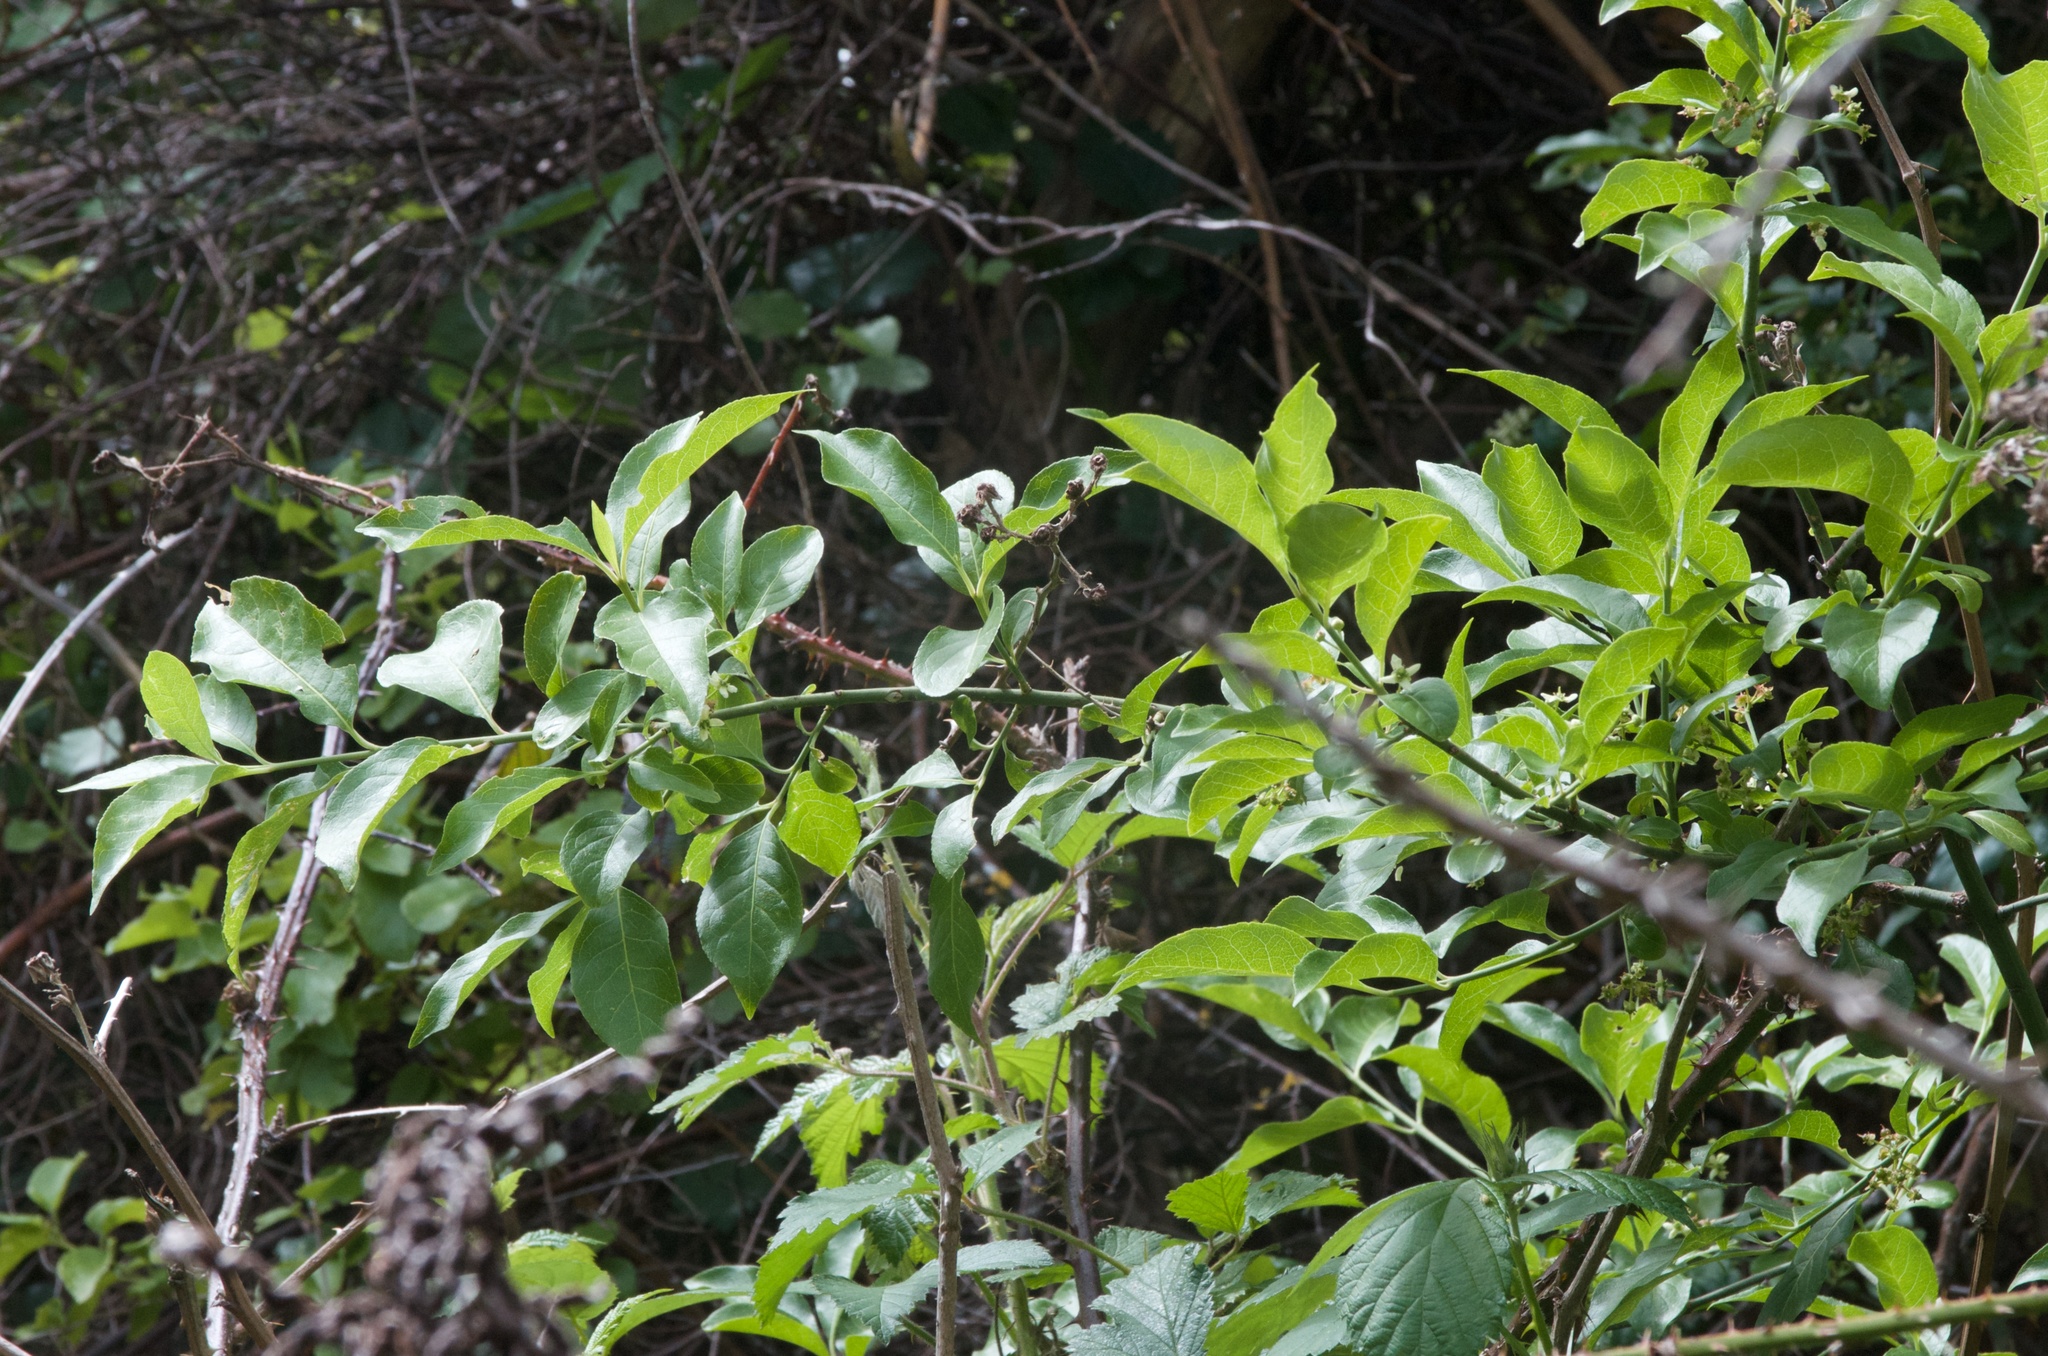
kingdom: Plantae
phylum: Tracheophyta
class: Magnoliopsida
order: Celastrales
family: Celastraceae
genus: Euonymus
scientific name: Euonymus europaeus
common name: Spindle
